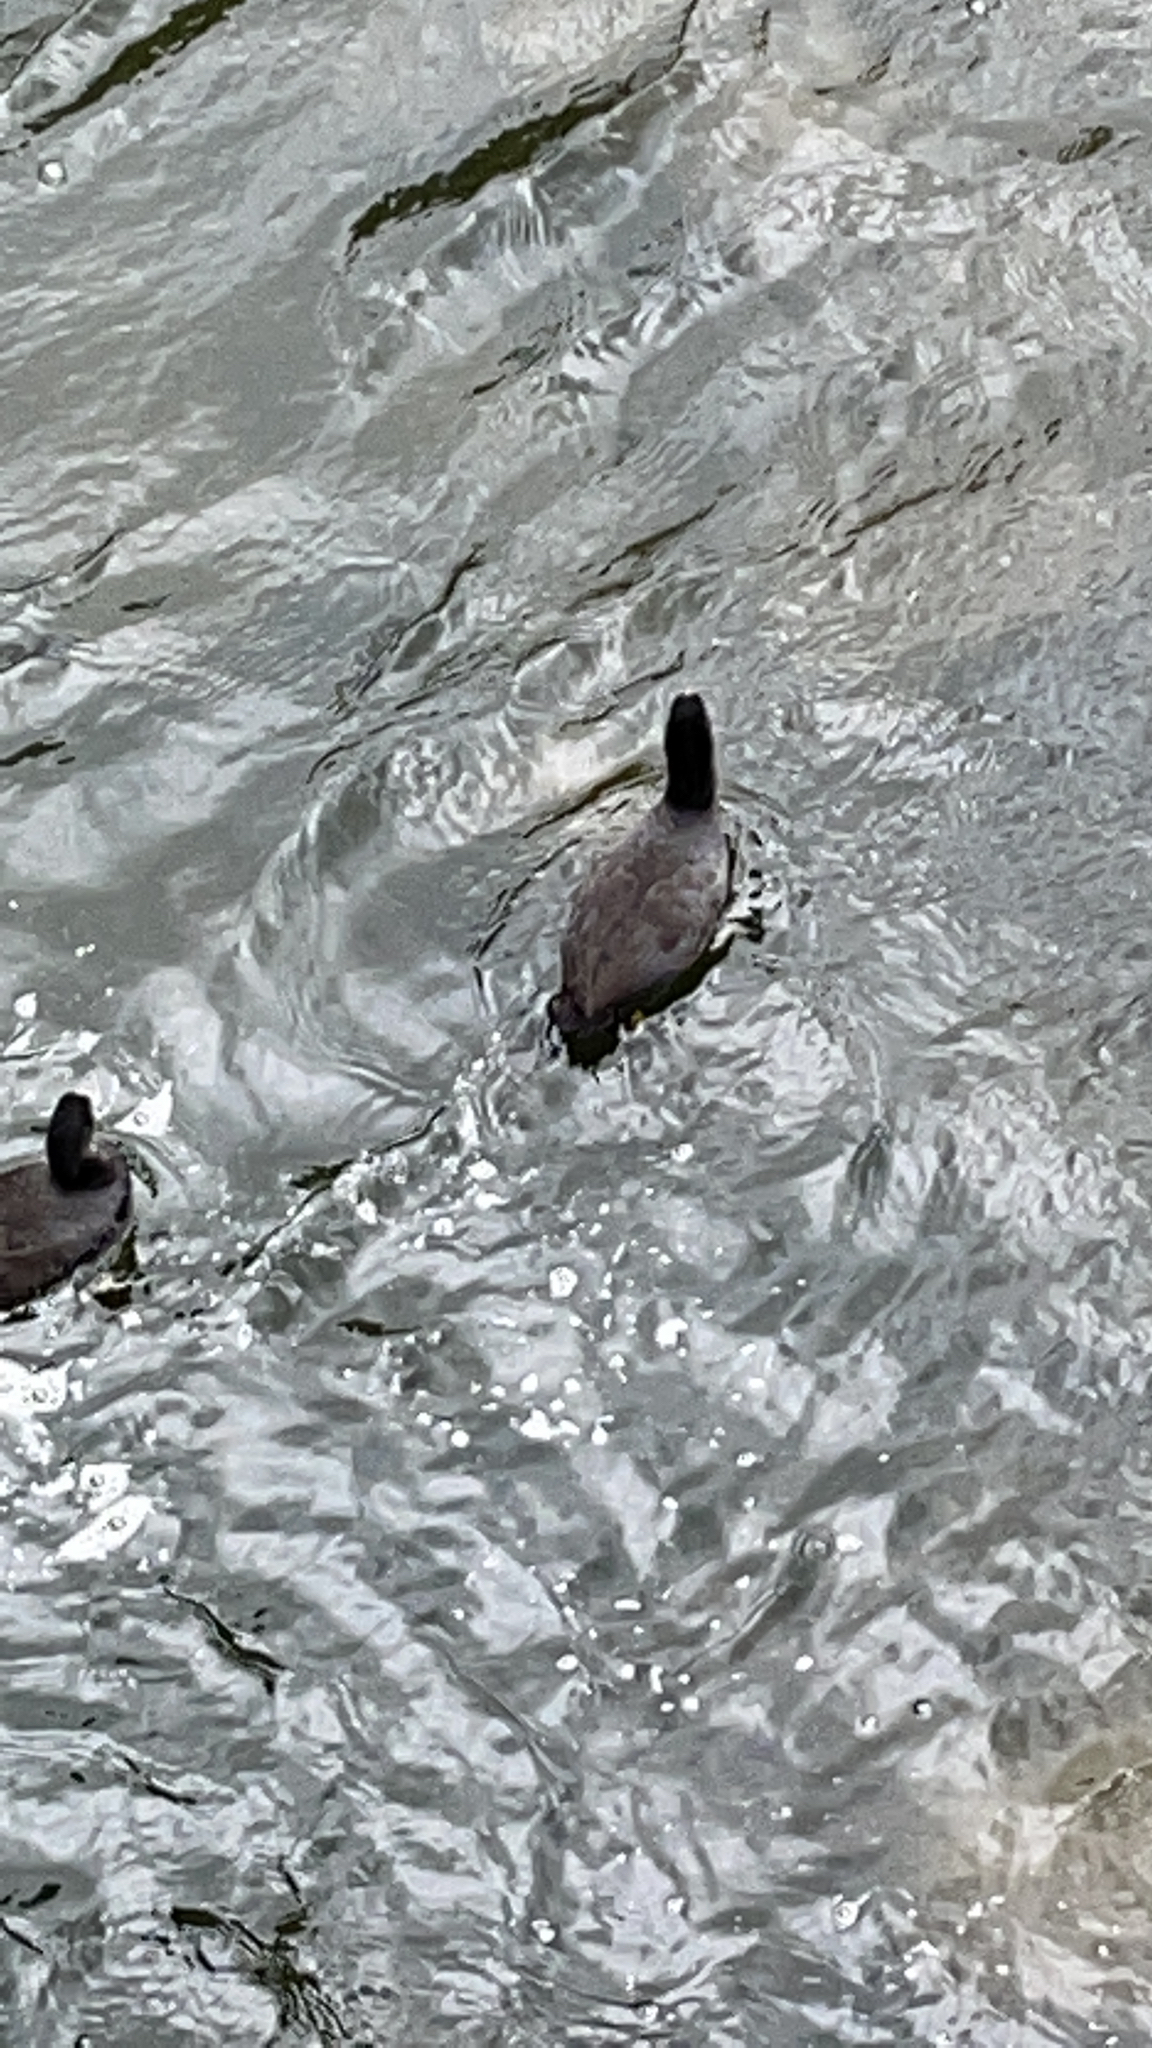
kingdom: Animalia
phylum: Chordata
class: Aves
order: Gruiformes
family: Rallidae
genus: Fulica
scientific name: Fulica atra
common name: Eurasian coot
